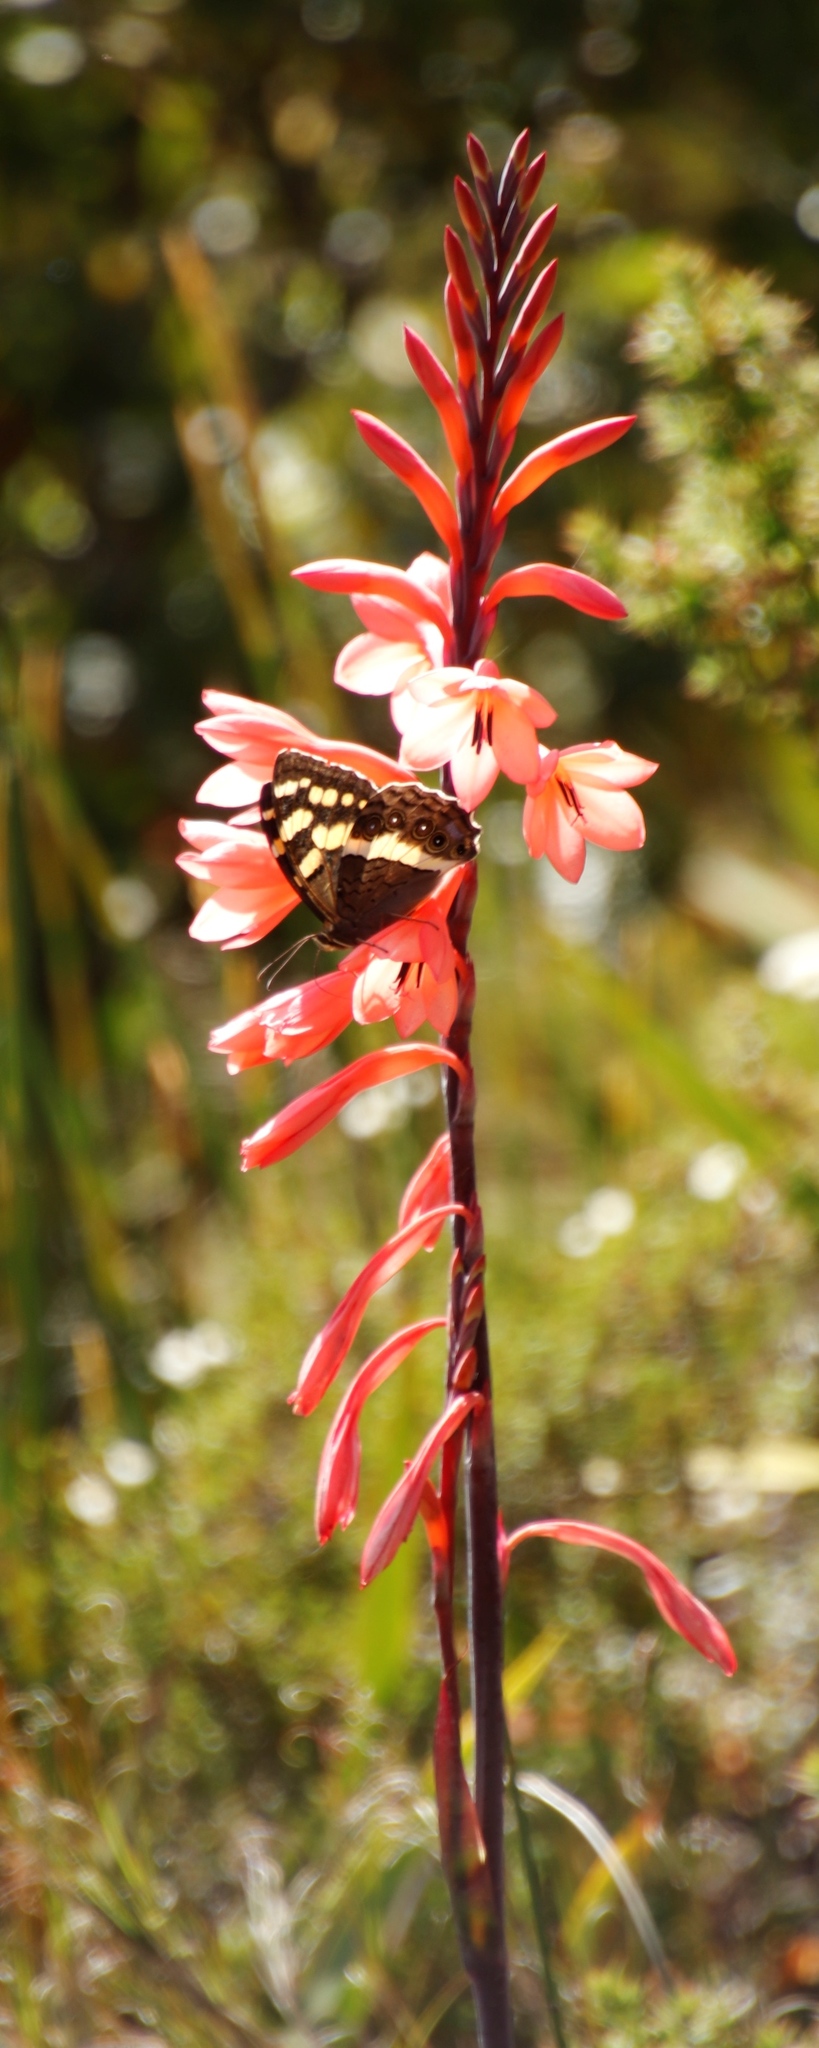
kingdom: Animalia
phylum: Arthropoda
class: Insecta
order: Lepidoptera
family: Nymphalidae
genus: Meneris
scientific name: Meneris Aeropetes tulbaghia
